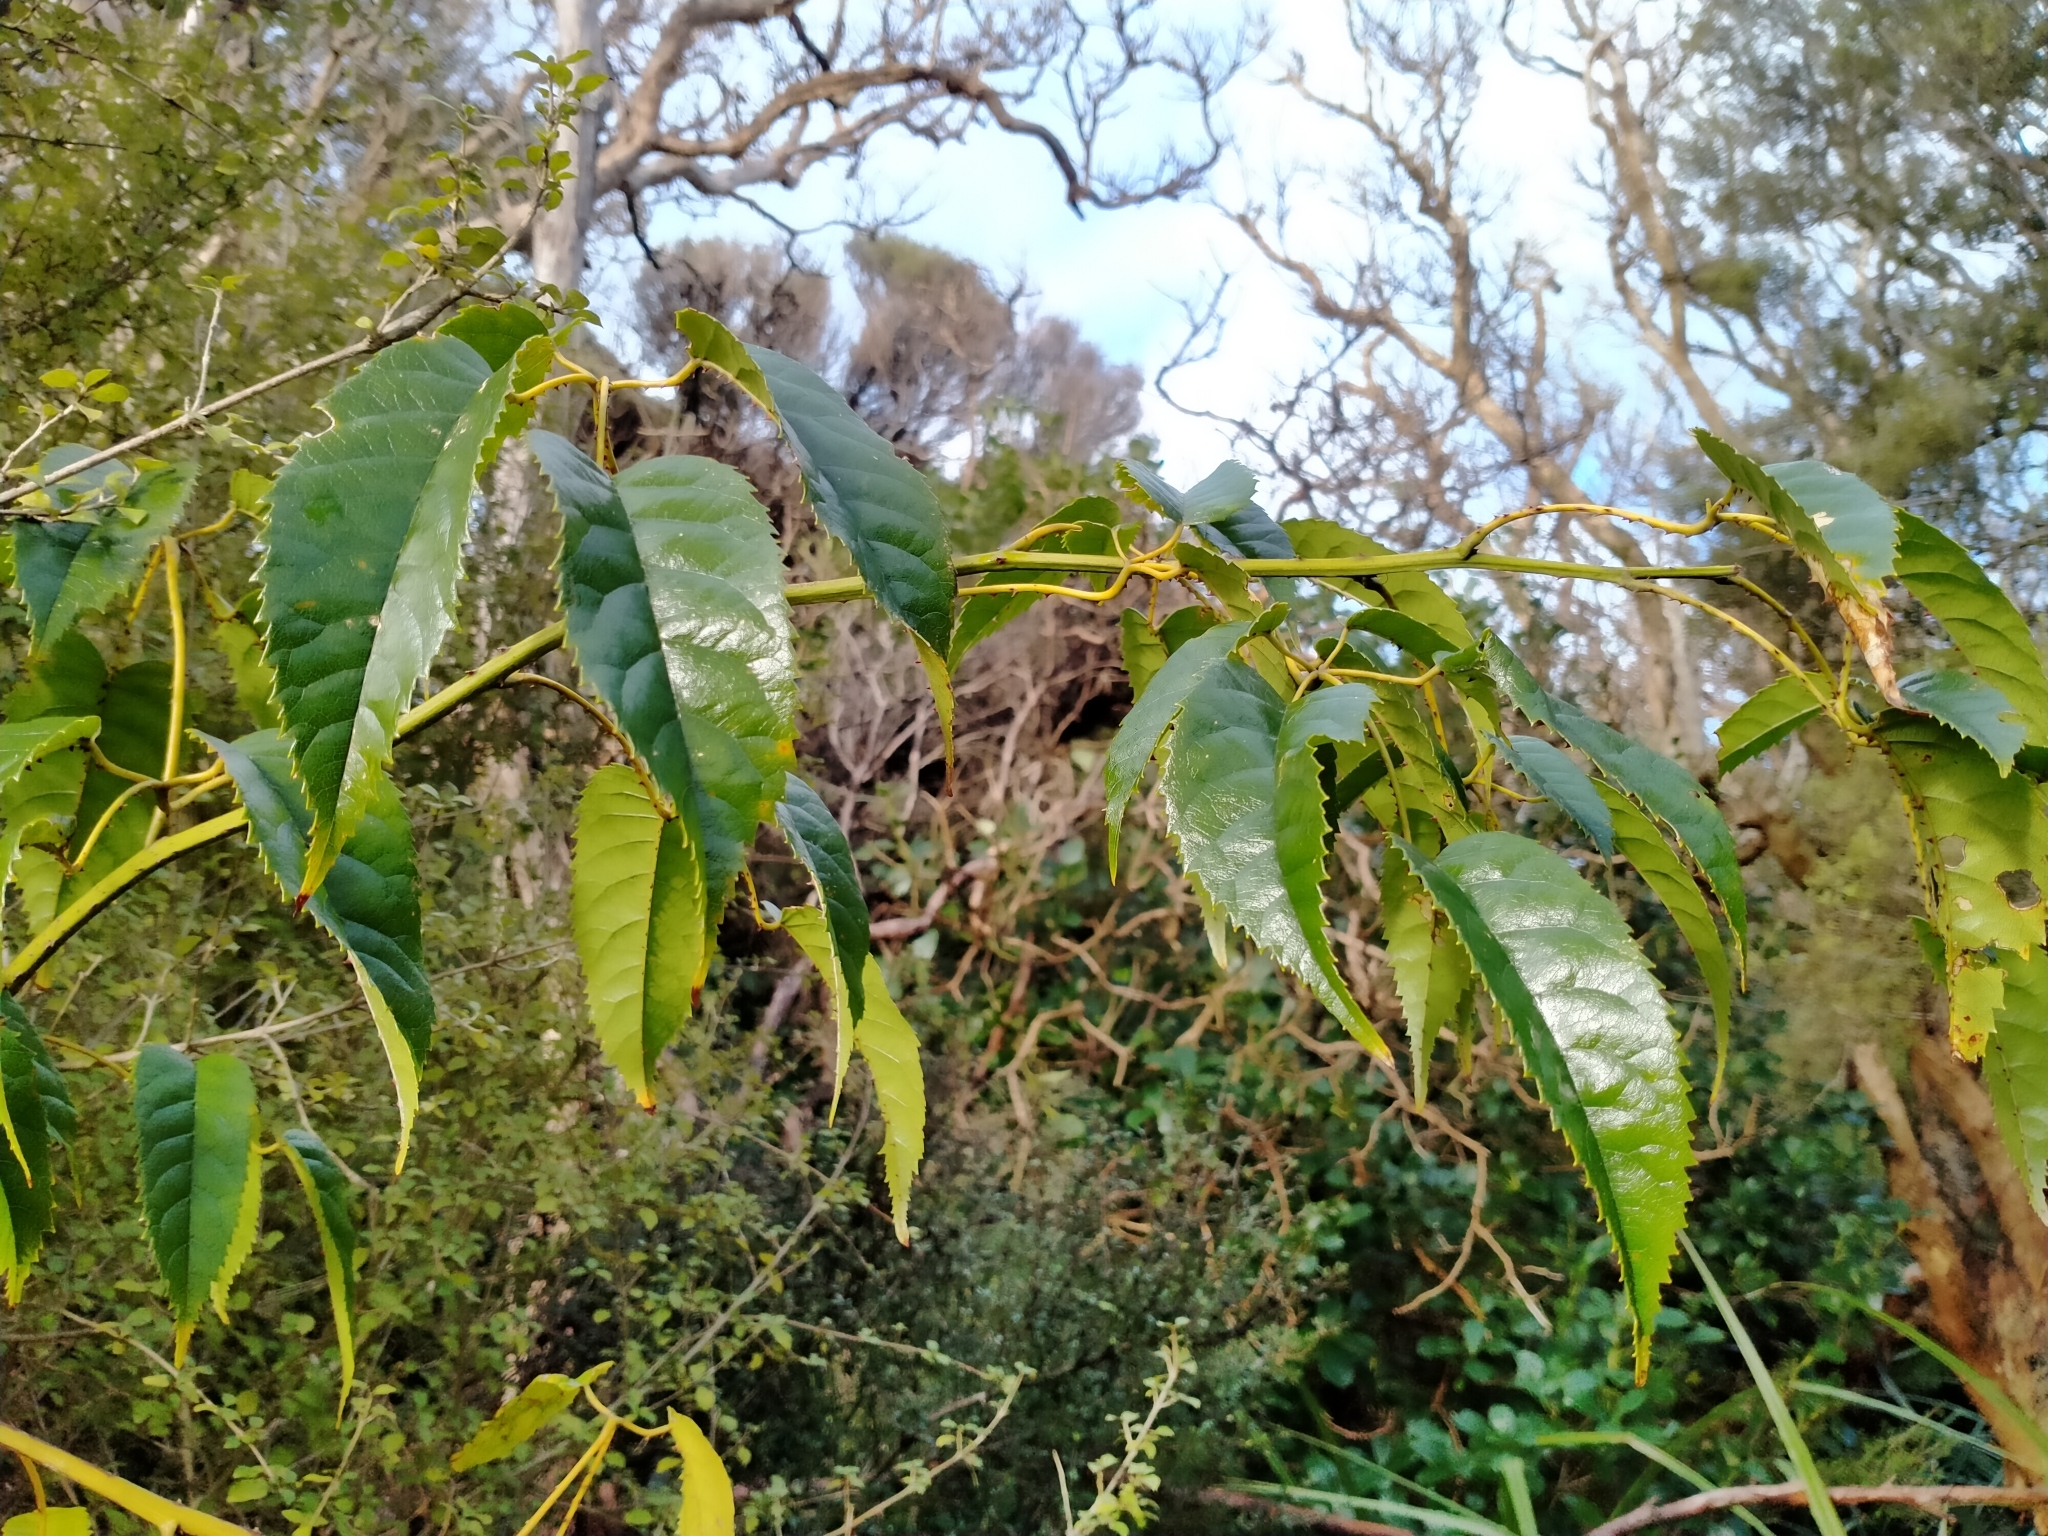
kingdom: Plantae
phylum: Tracheophyta
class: Magnoliopsida
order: Rosales
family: Rosaceae
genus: Rubus
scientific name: Rubus cissoides
